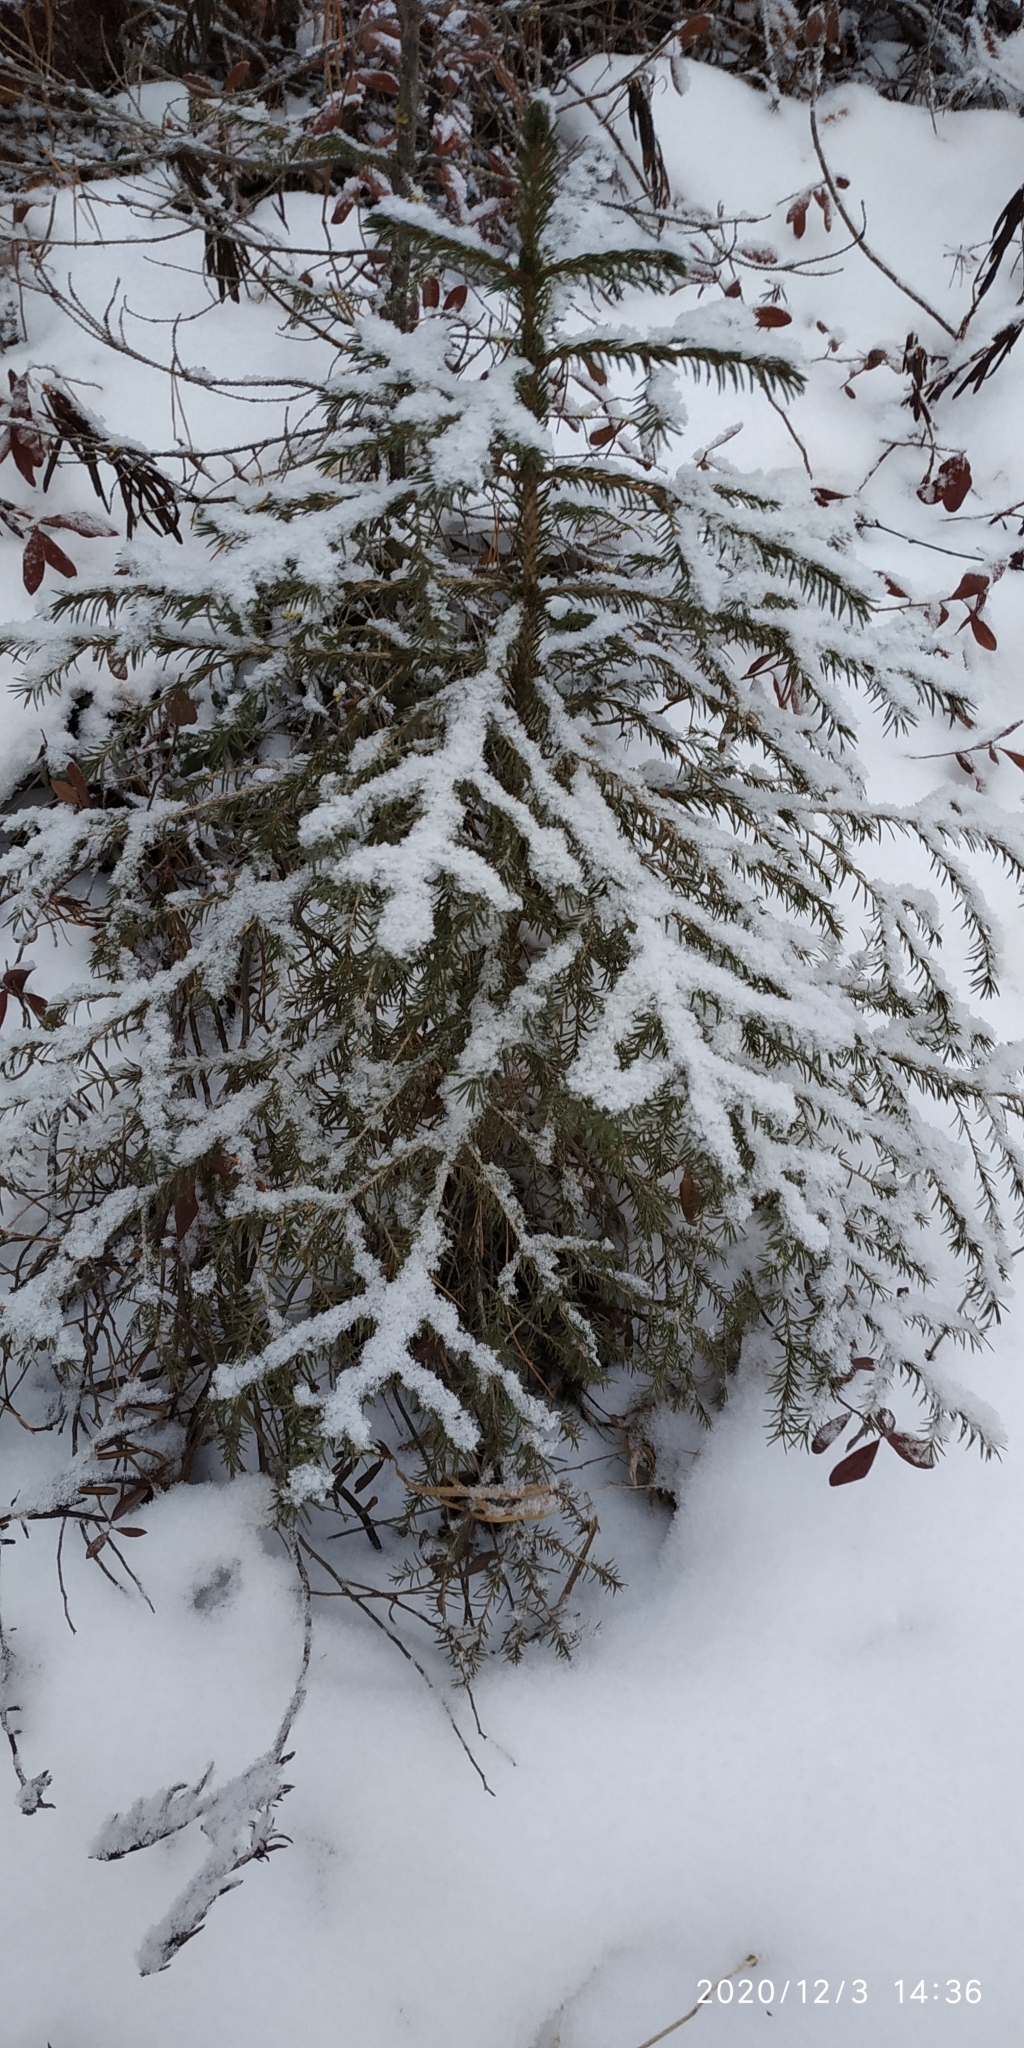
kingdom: Plantae
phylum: Tracheophyta
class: Pinopsida
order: Pinales
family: Pinaceae
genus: Picea
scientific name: Picea obovata
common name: Siberian spruce
